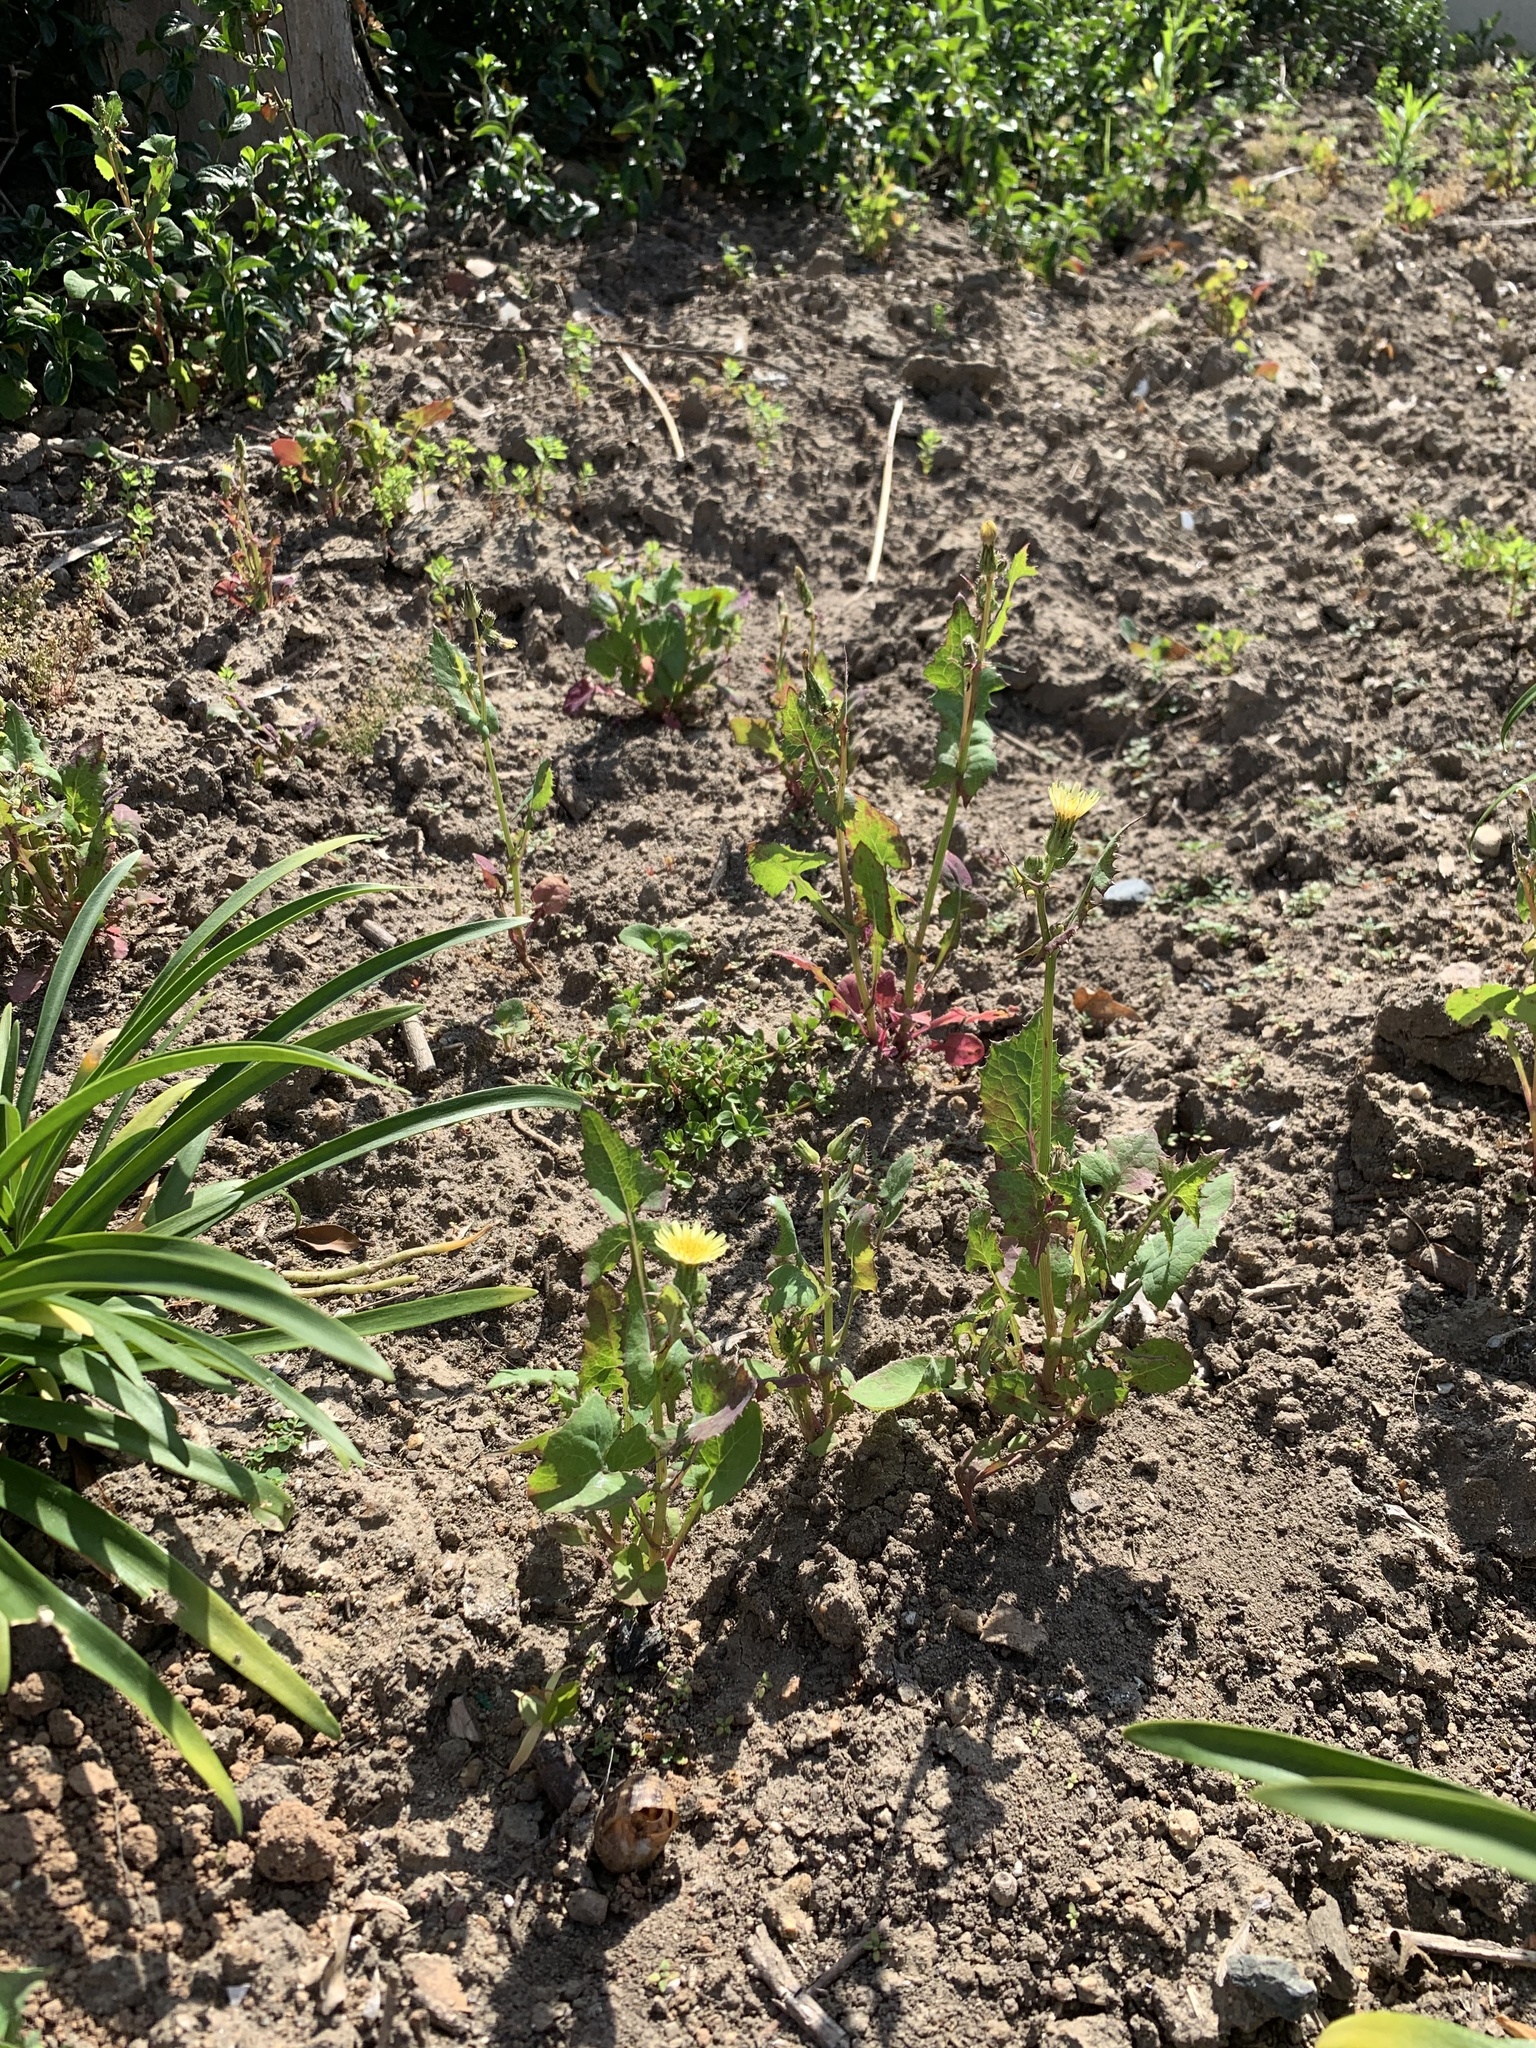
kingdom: Plantae
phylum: Tracheophyta
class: Magnoliopsida
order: Asterales
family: Asteraceae
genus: Sonchus
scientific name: Sonchus oleraceus
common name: Common sowthistle
